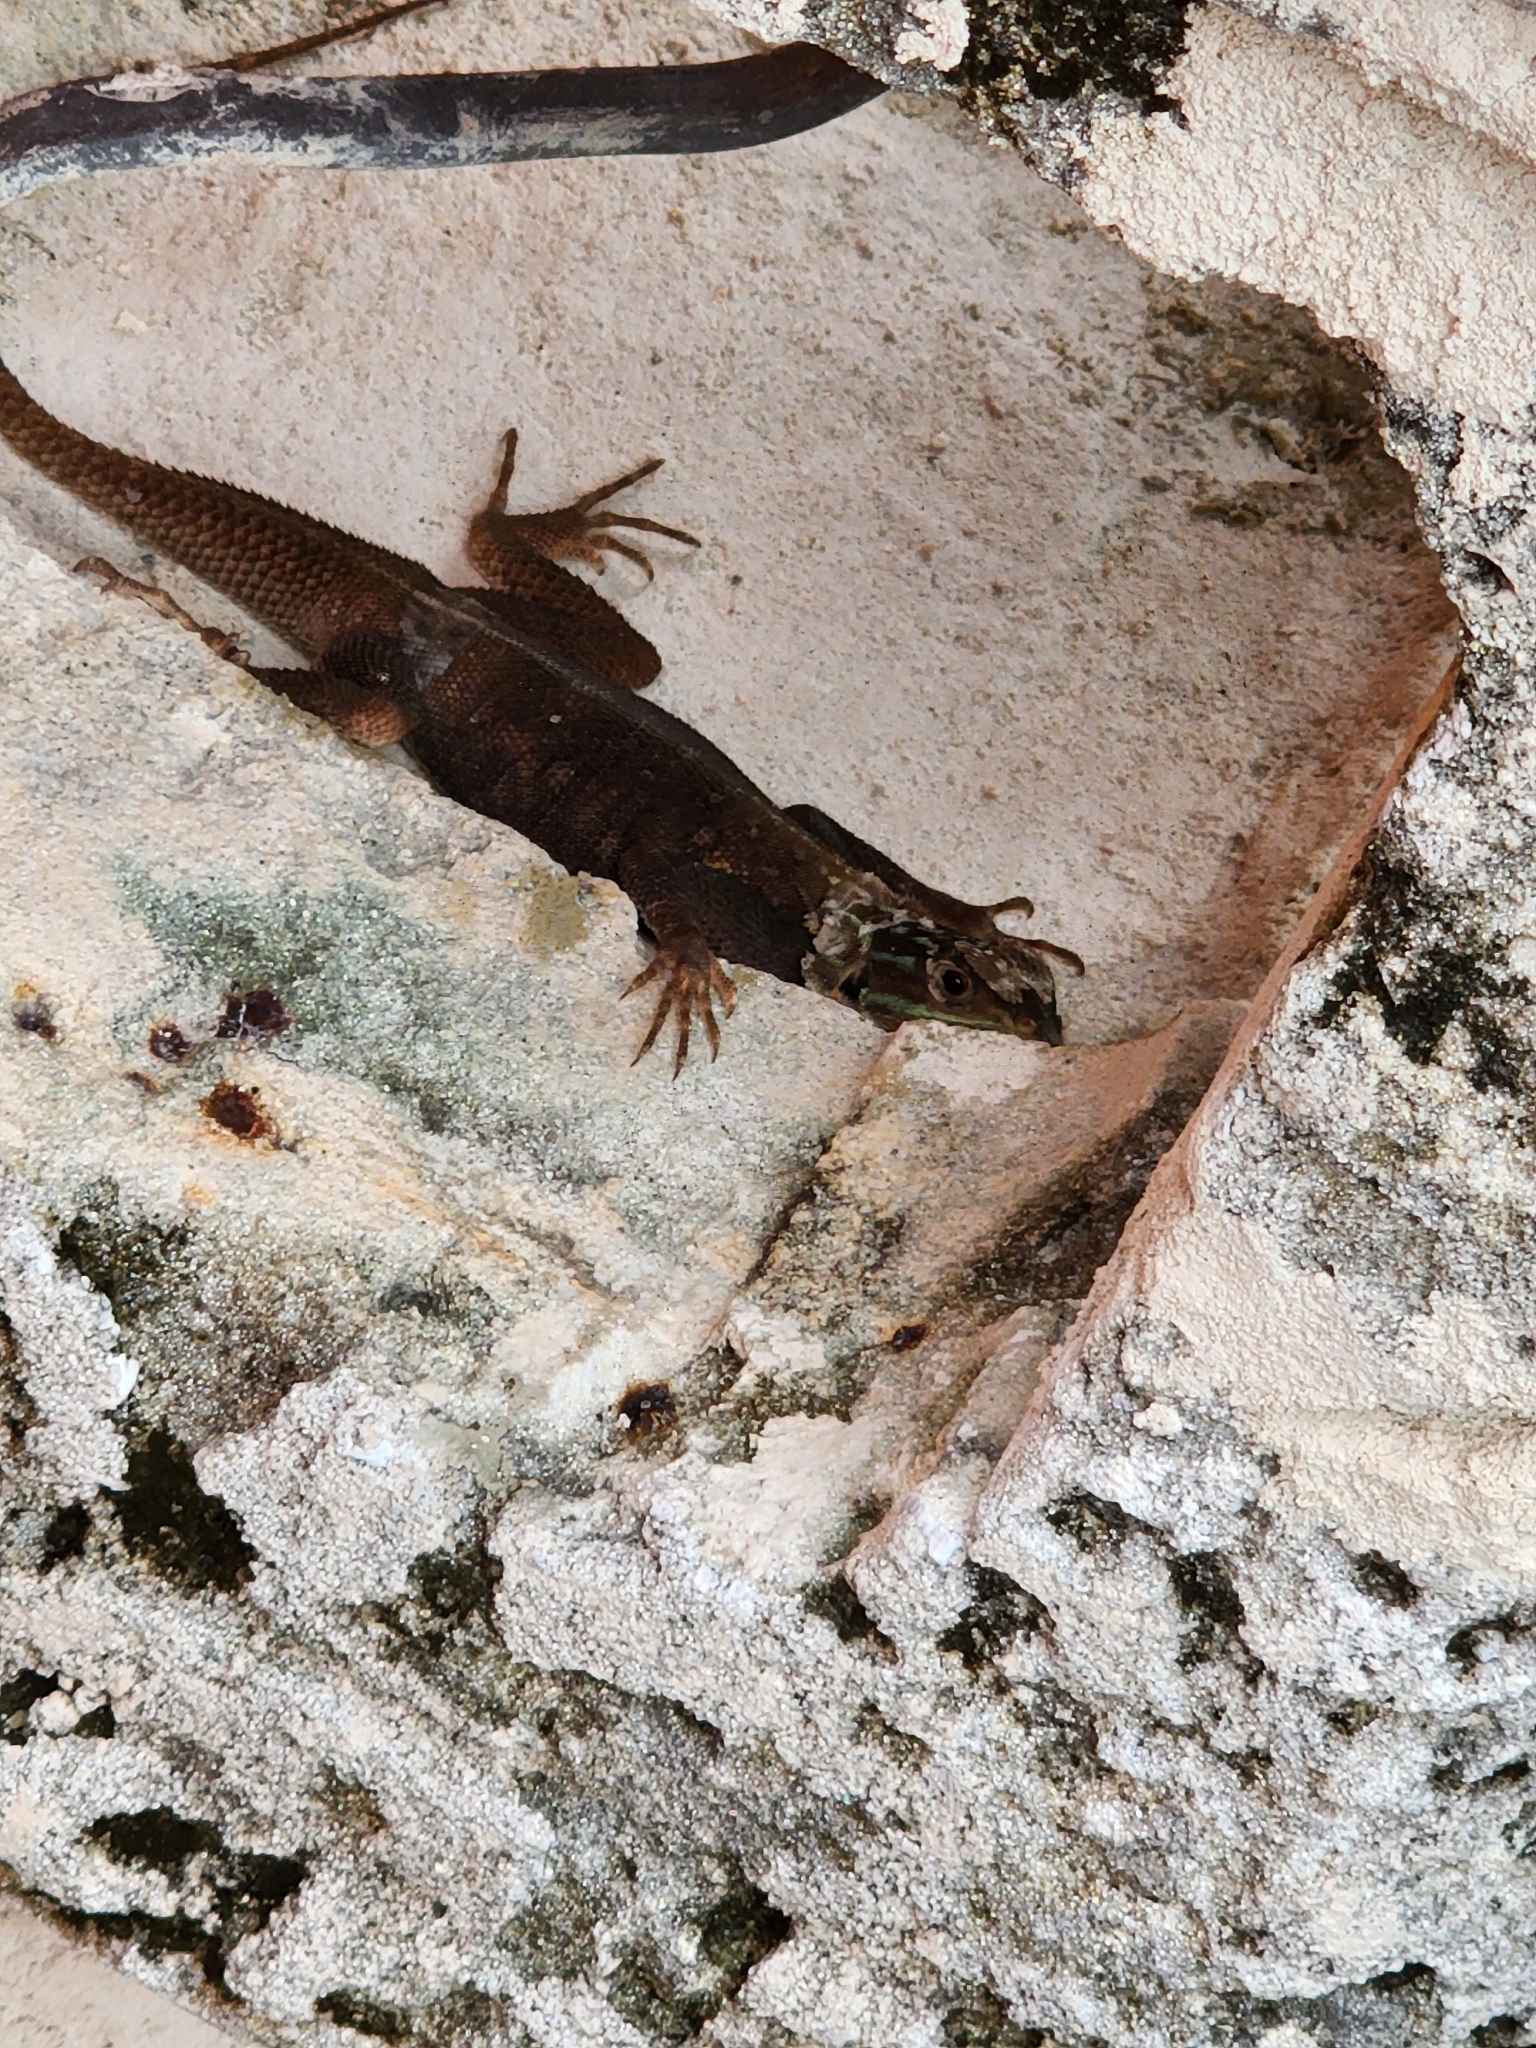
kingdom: Animalia
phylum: Chordata
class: Squamata
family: Agamidae
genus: Agama
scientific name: Agama picticauda
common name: Red-headed agama
